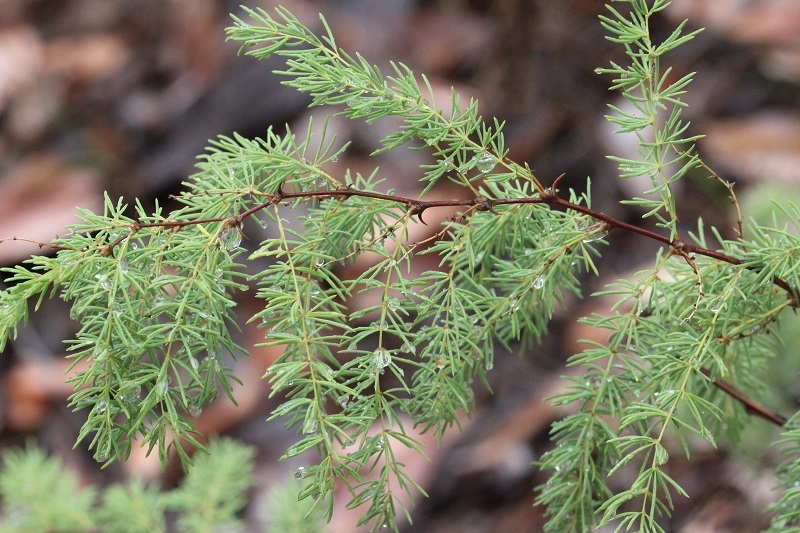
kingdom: Plantae
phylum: Tracheophyta
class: Liliopsida
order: Asparagales
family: Asparagaceae
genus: Asparagus
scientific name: Asparagus rubicundus
